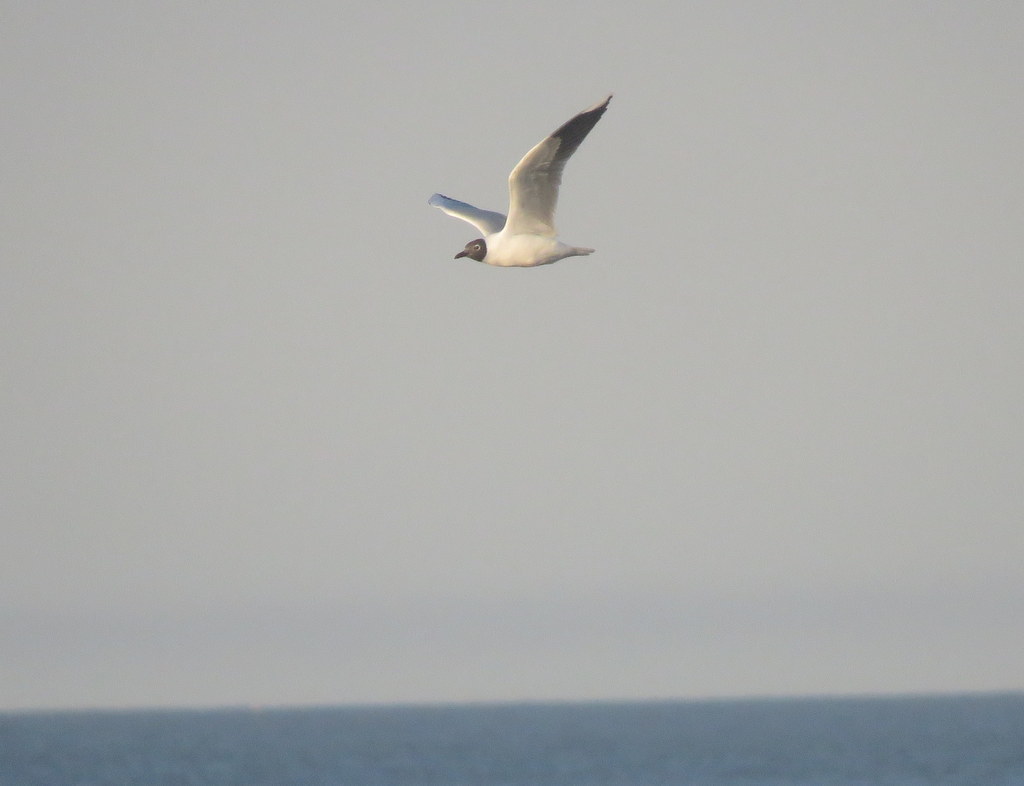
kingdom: Animalia
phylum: Chordata
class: Aves
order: Charadriiformes
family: Laridae
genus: Chroicocephalus
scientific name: Chroicocephalus maculipennis
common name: Brown-hooded gull
